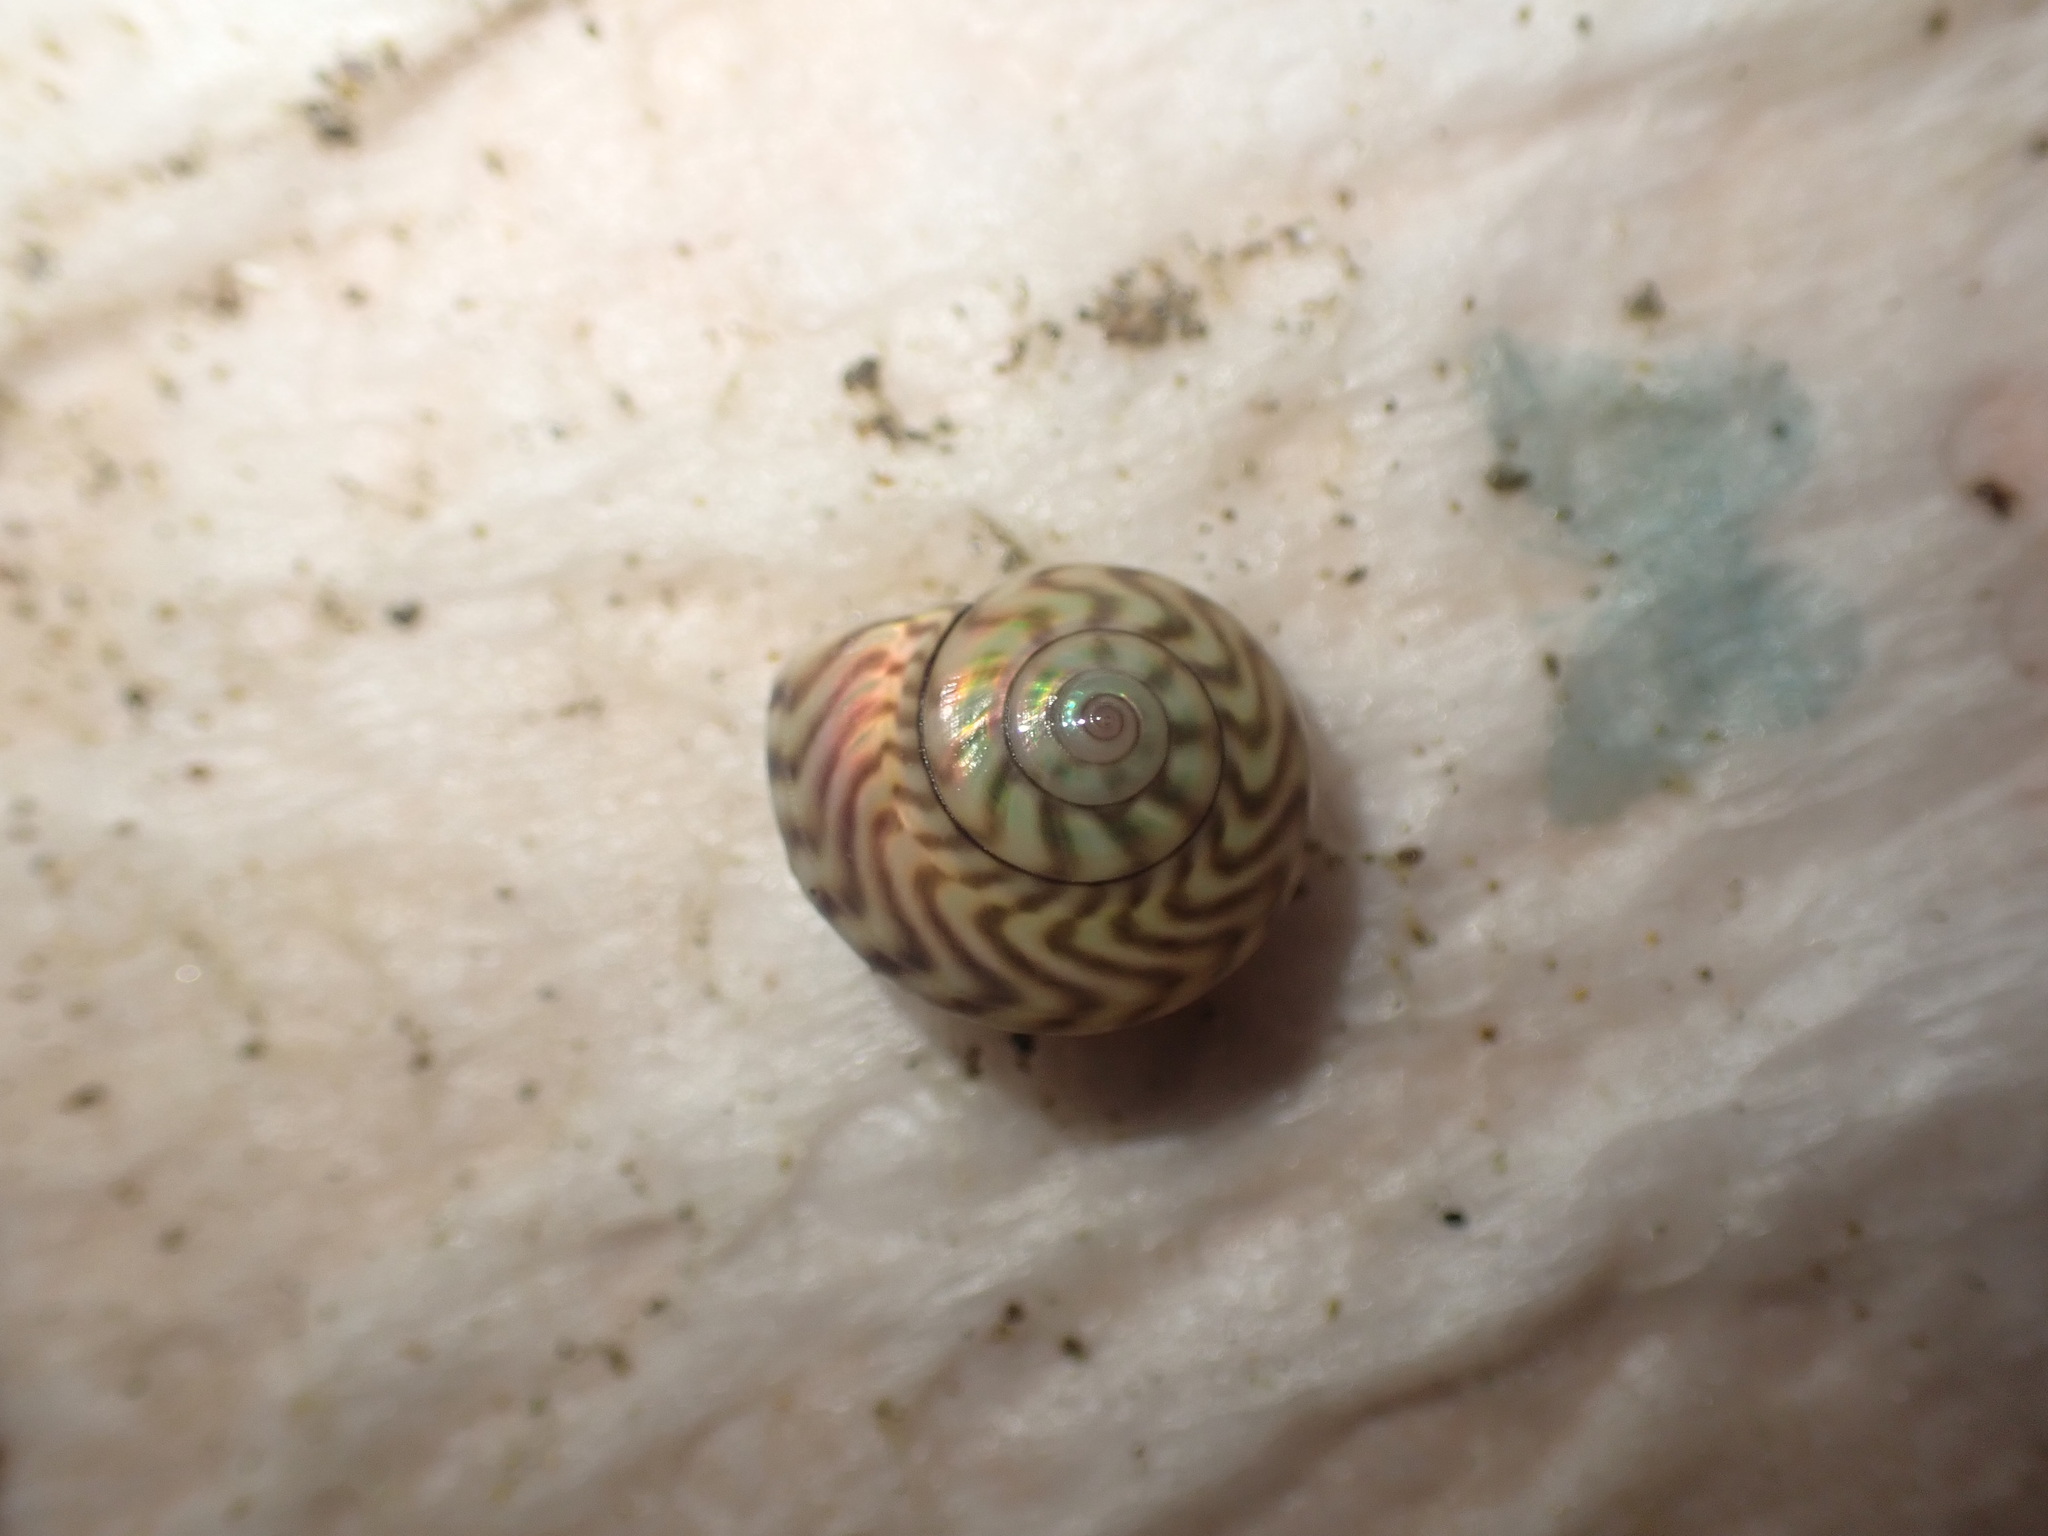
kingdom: Animalia
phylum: Mollusca
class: Gastropoda
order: Trochida
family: Trochidae
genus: Zethalia
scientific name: Zethalia zelandica
